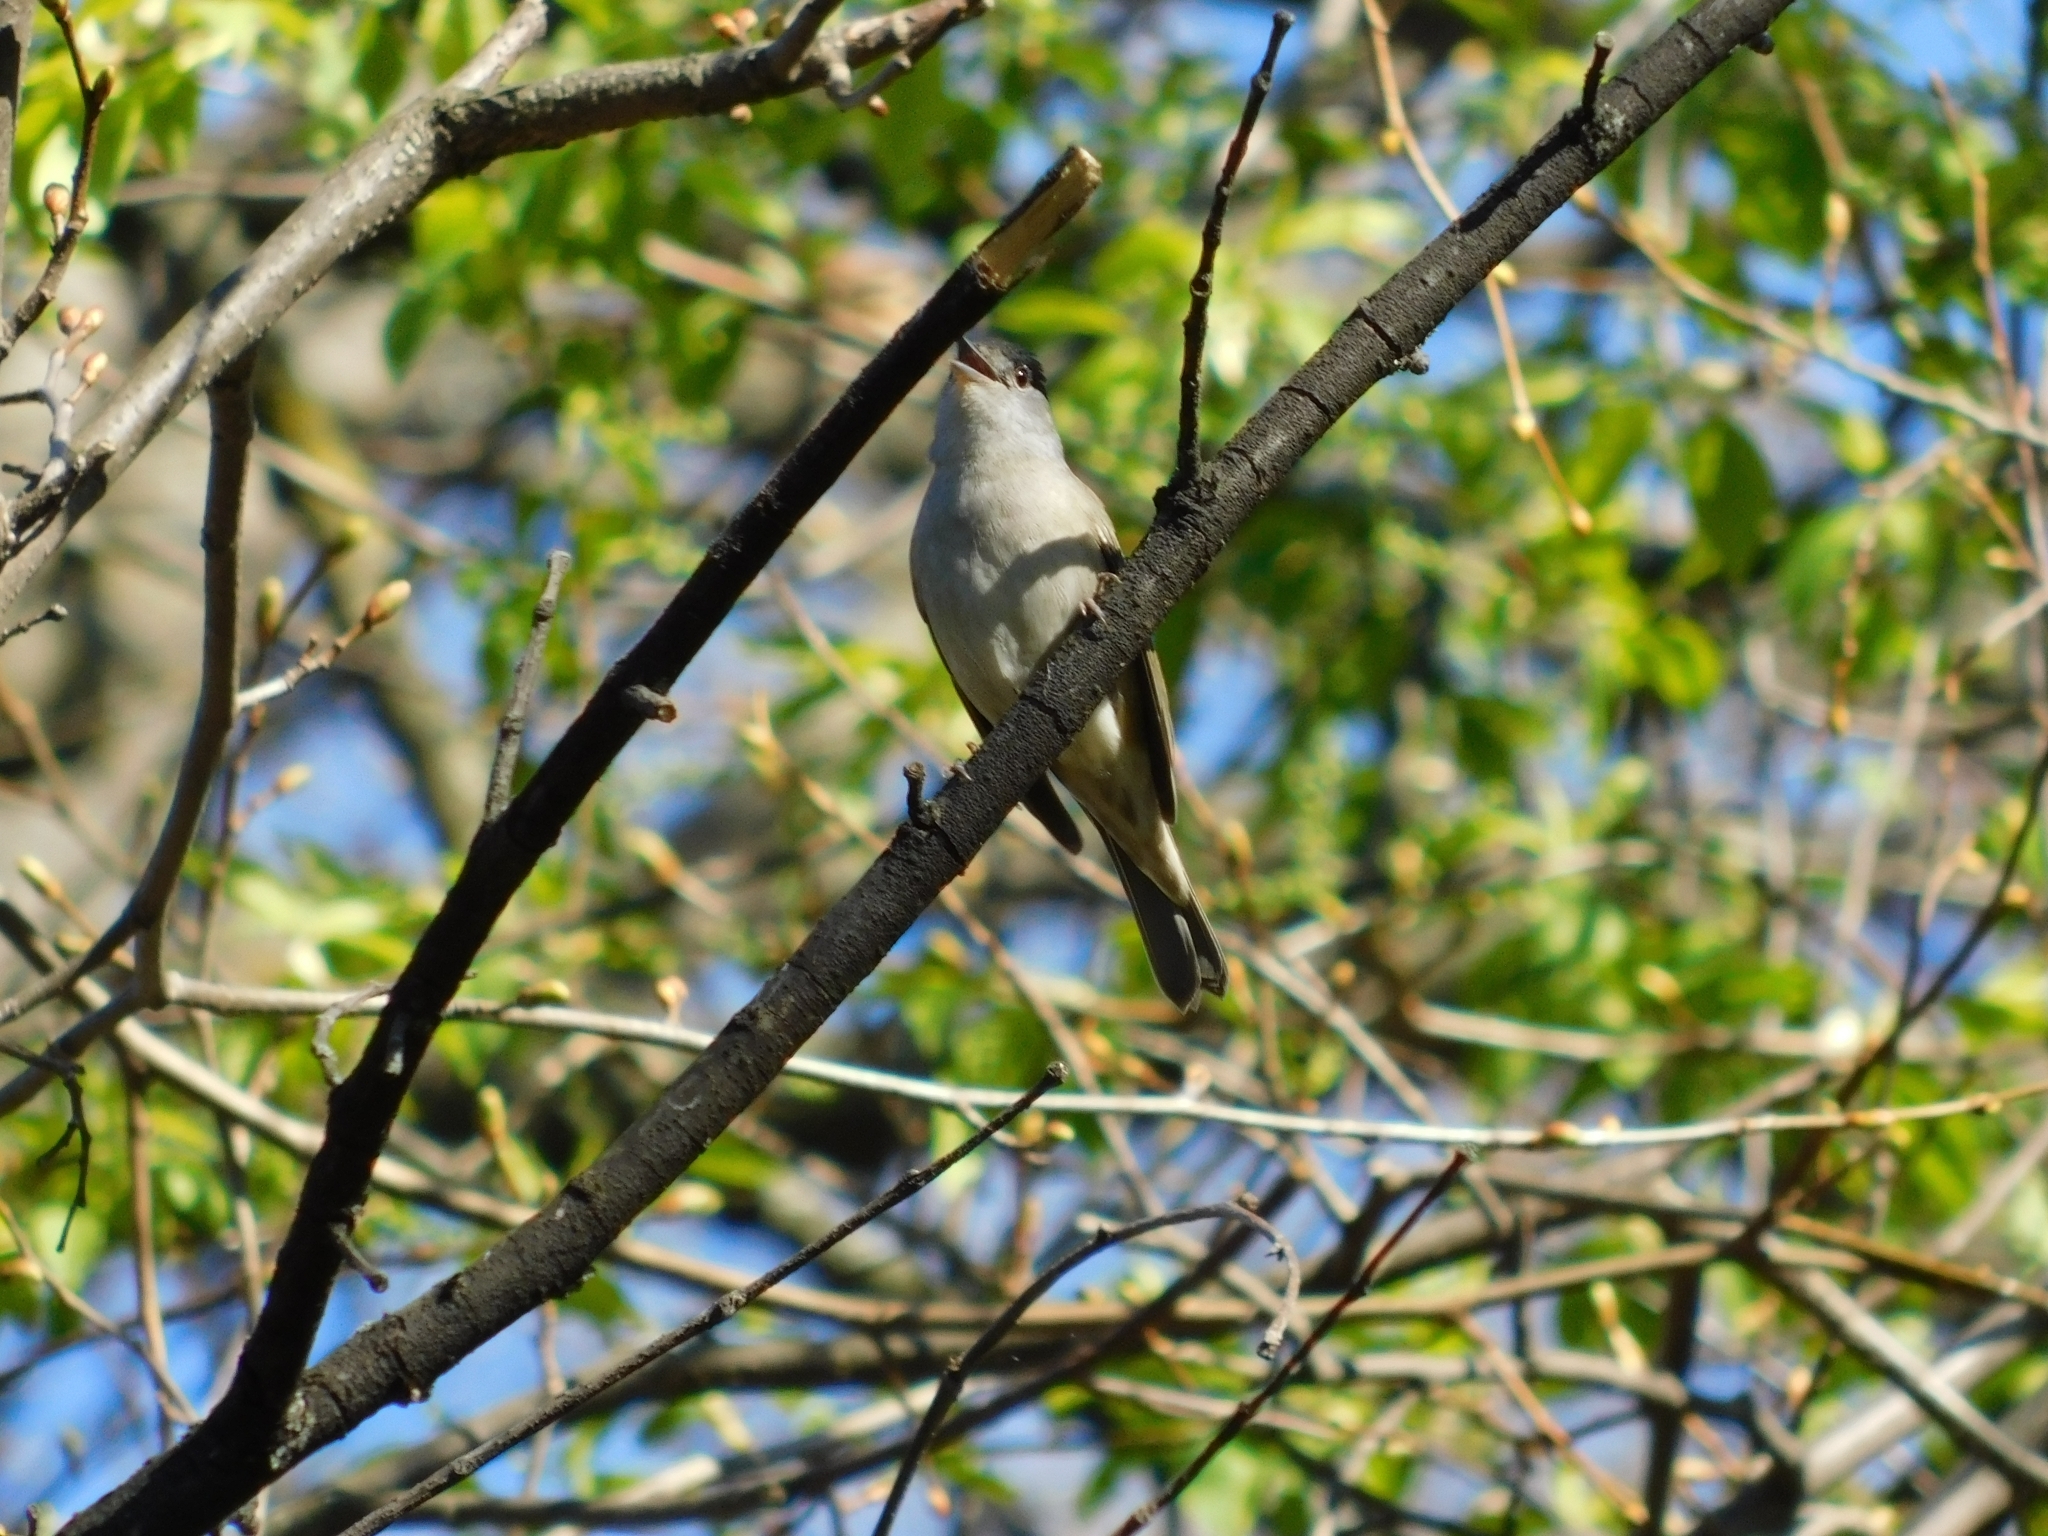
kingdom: Animalia
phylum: Chordata
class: Aves
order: Passeriformes
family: Sylviidae
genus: Sylvia
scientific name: Sylvia atricapilla
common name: Eurasian blackcap
